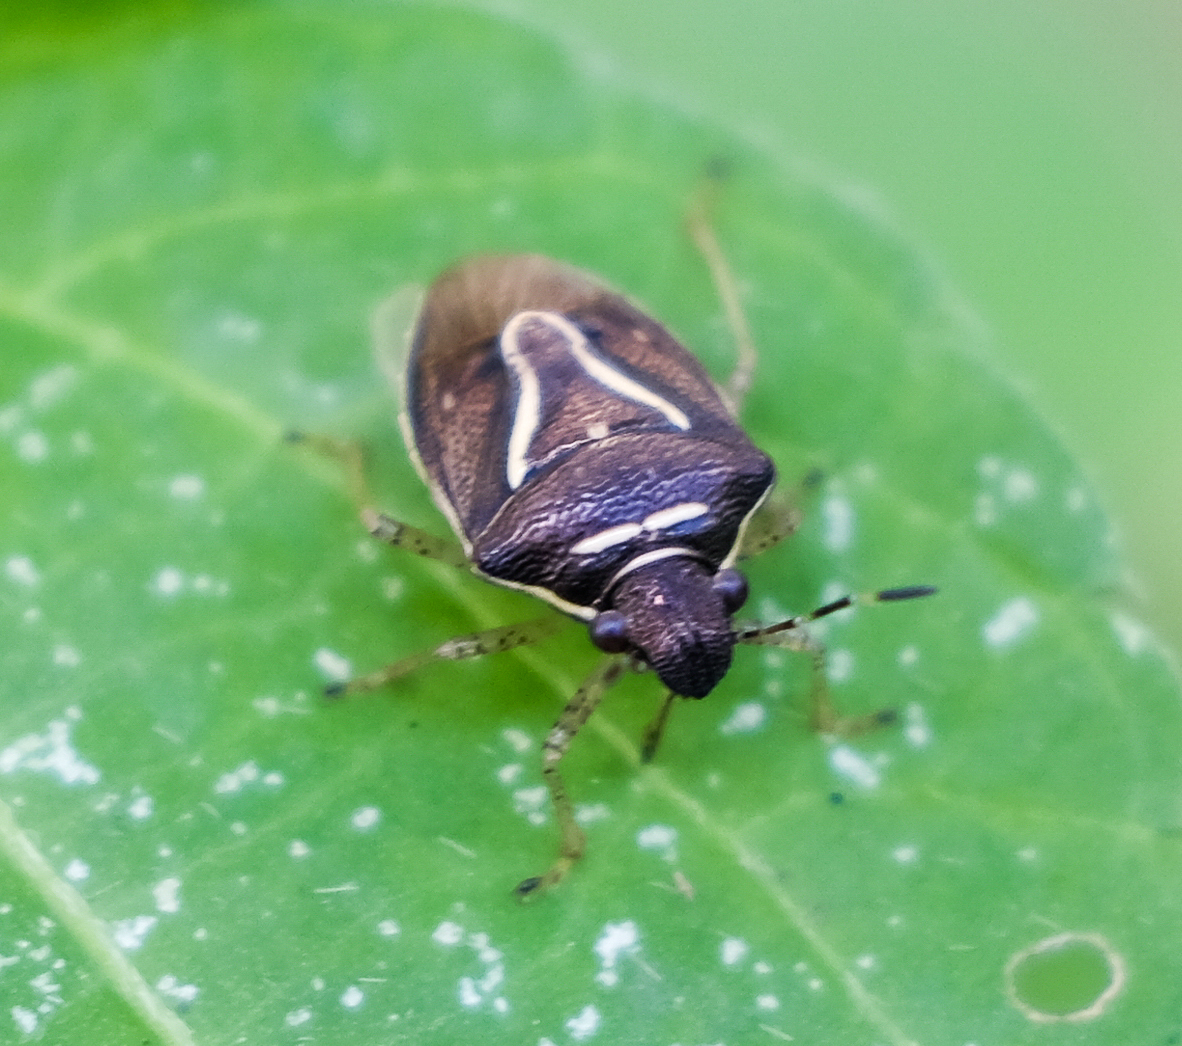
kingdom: Animalia
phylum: Arthropoda
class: Insecta
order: Hemiptera
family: Pentatomidae
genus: Mormidea
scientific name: Mormidea lugens
